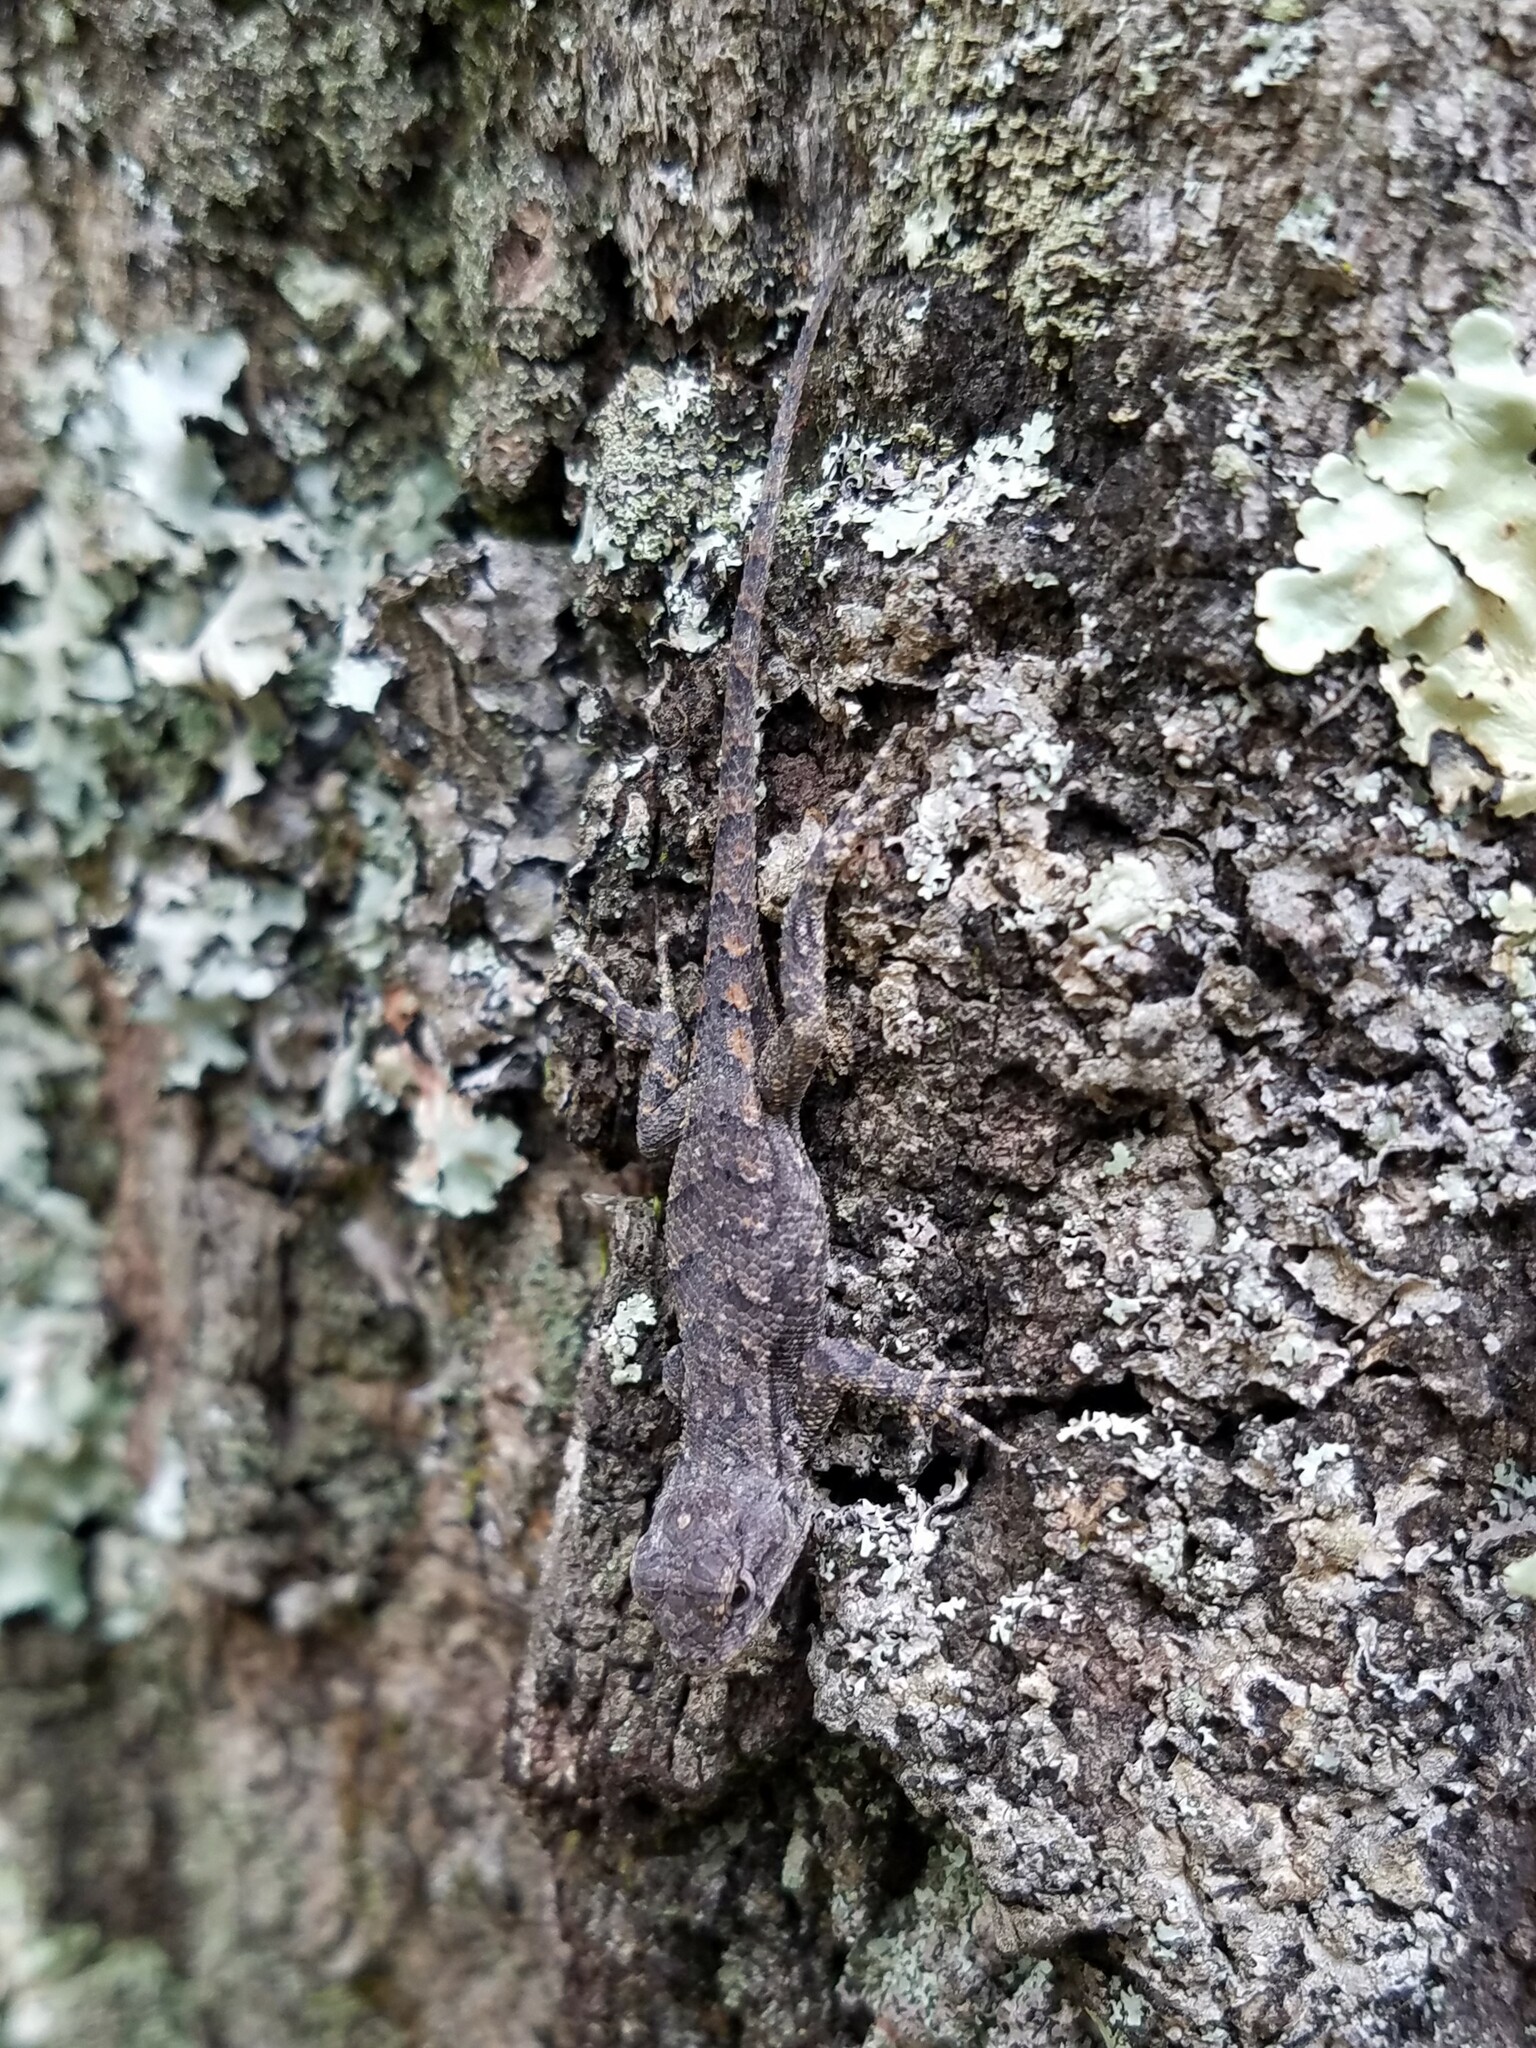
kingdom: Animalia
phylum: Chordata
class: Squamata
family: Phrynosomatidae
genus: Sceloporus
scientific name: Sceloporus undulatus
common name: Eastern fence lizard
